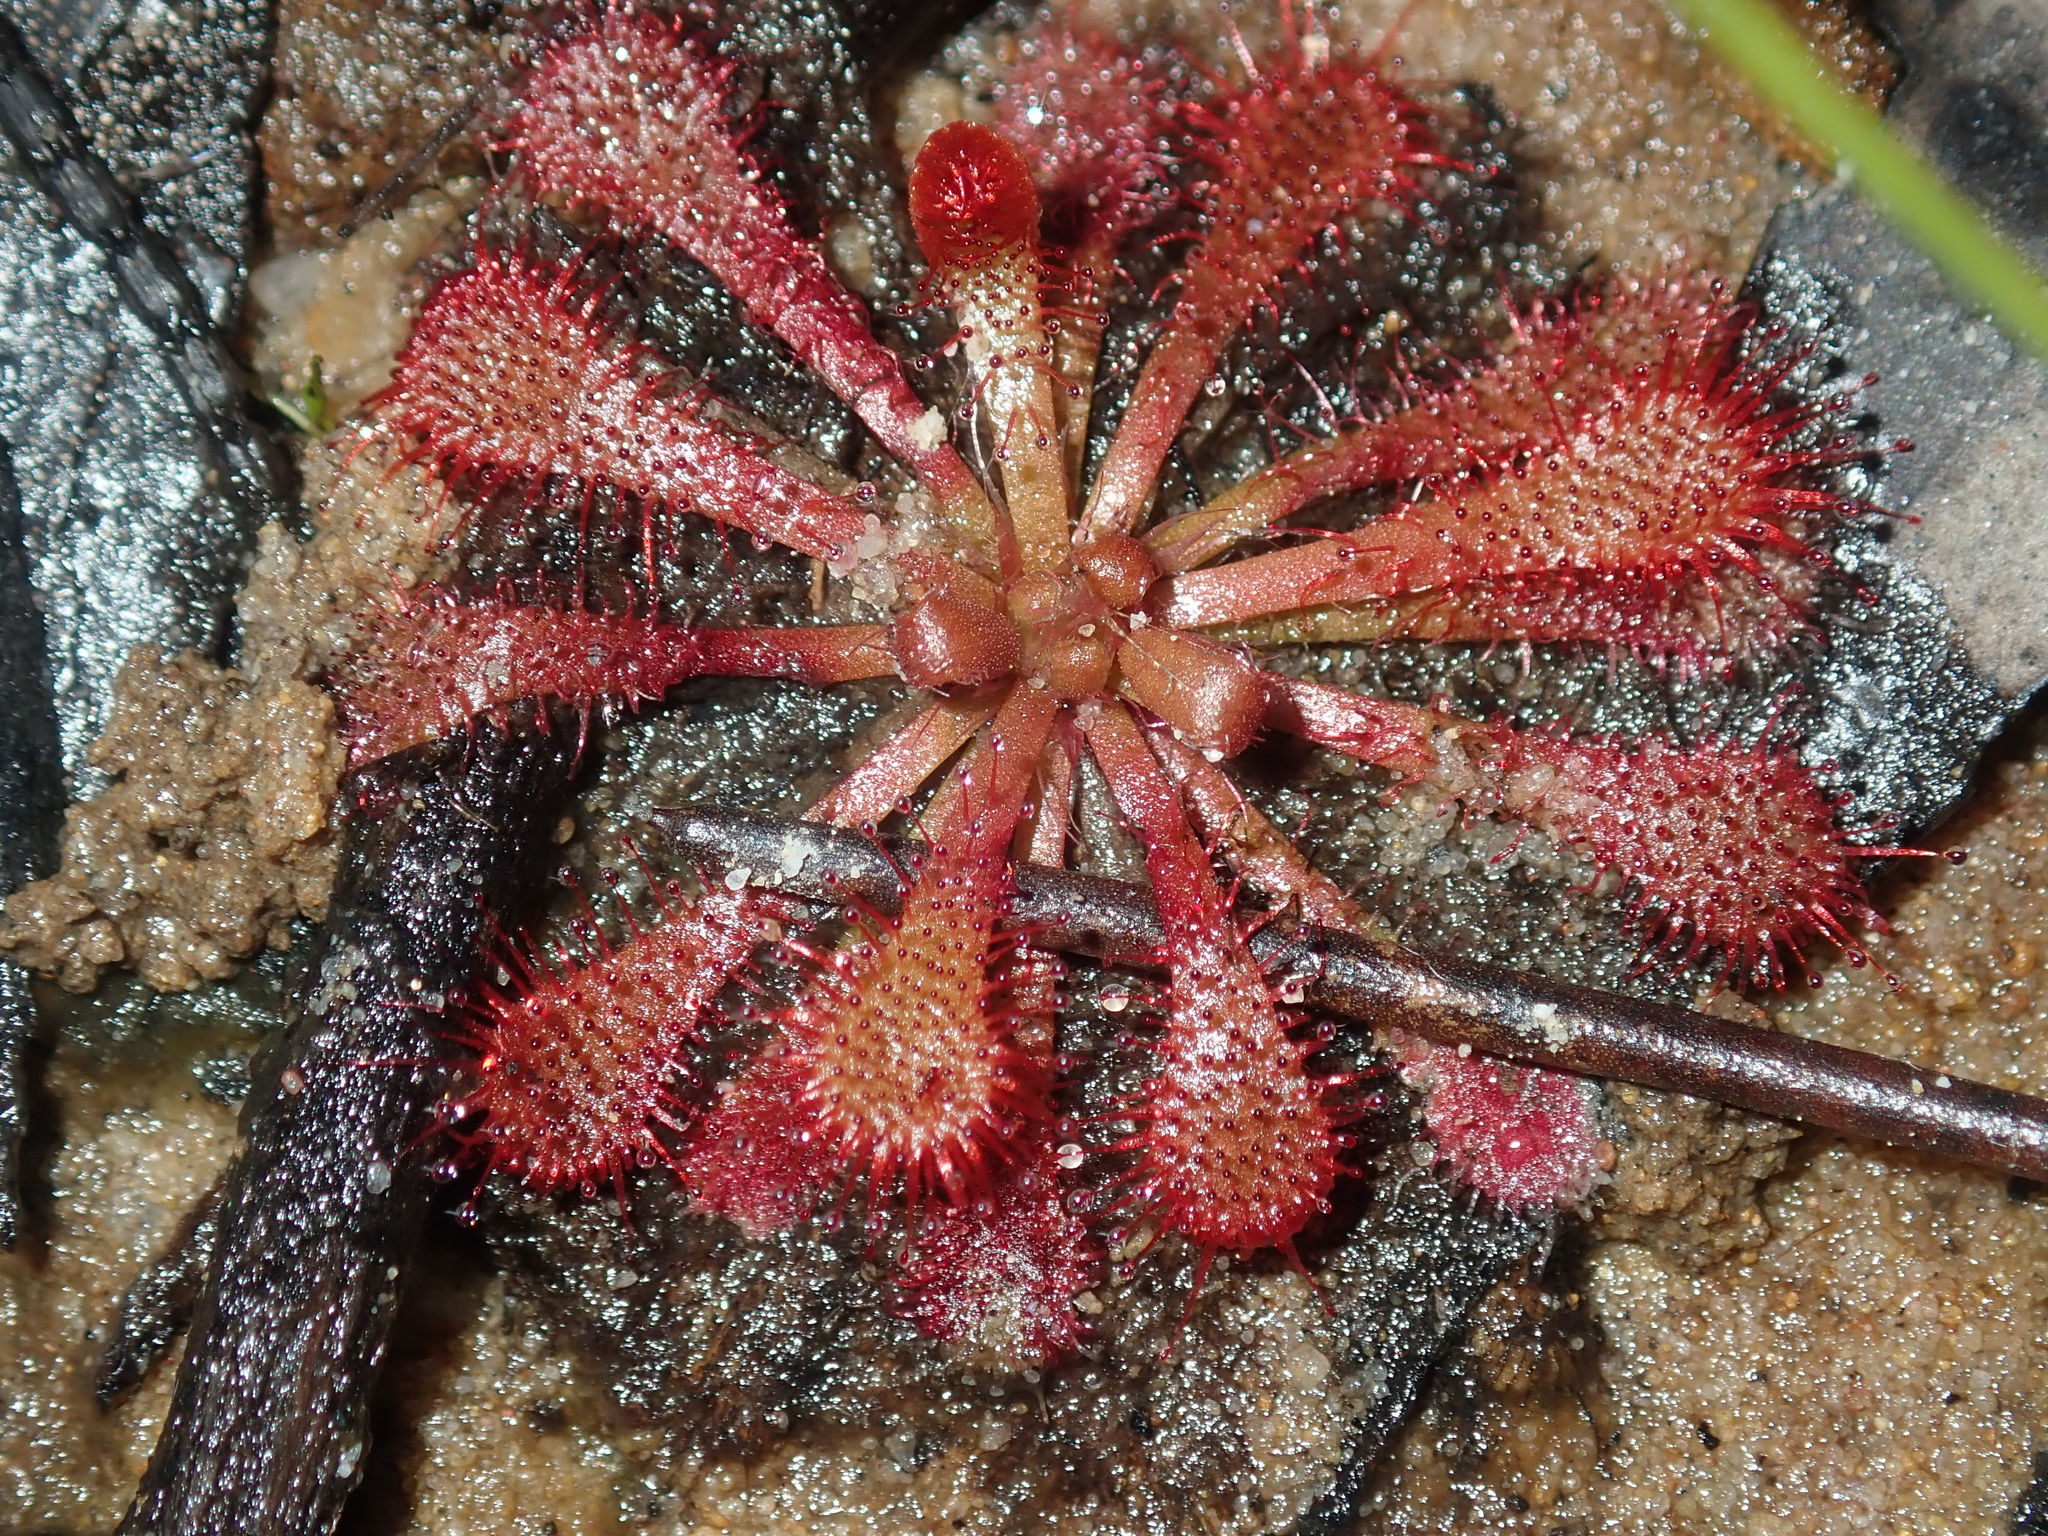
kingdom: Plantae
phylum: Tracheophyta
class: Magnoliopsida
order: Caryophyllales
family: Droseraceae
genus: Drosera
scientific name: Drosera spatulata
